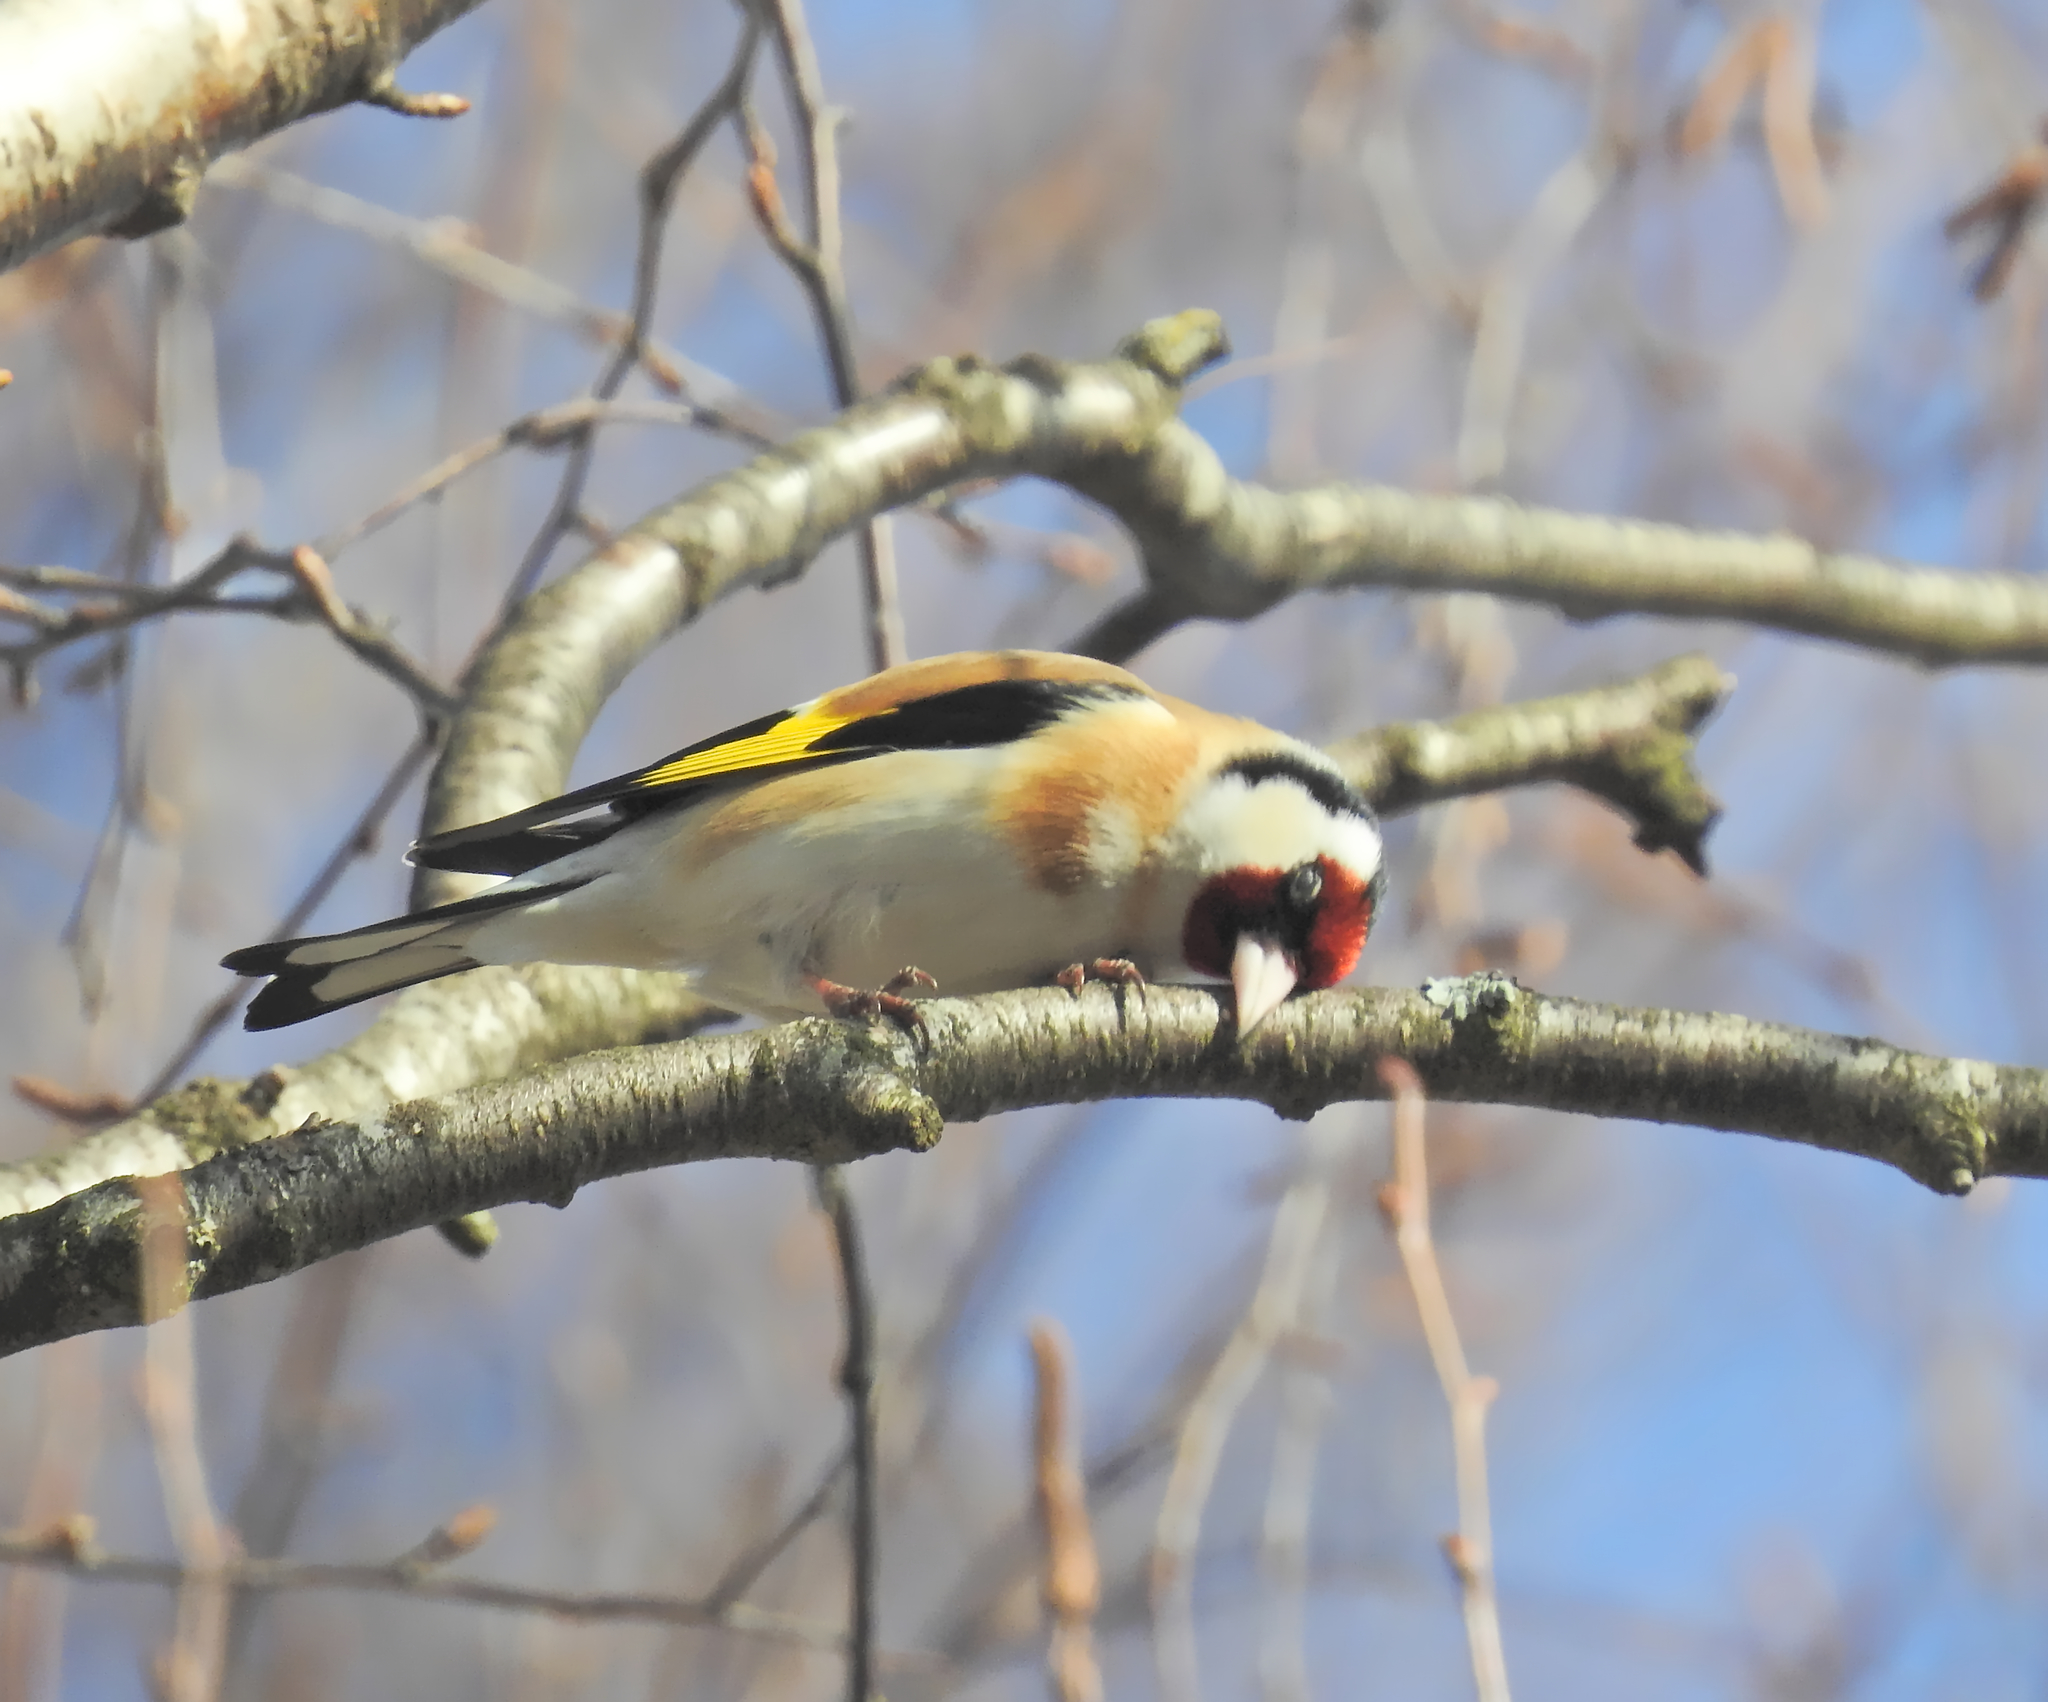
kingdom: Animalia
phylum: Chordata
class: Aves
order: Passeriformes
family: Fringillidae
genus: Carduelis
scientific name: Carduelis carduelis
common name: European goldfinch
